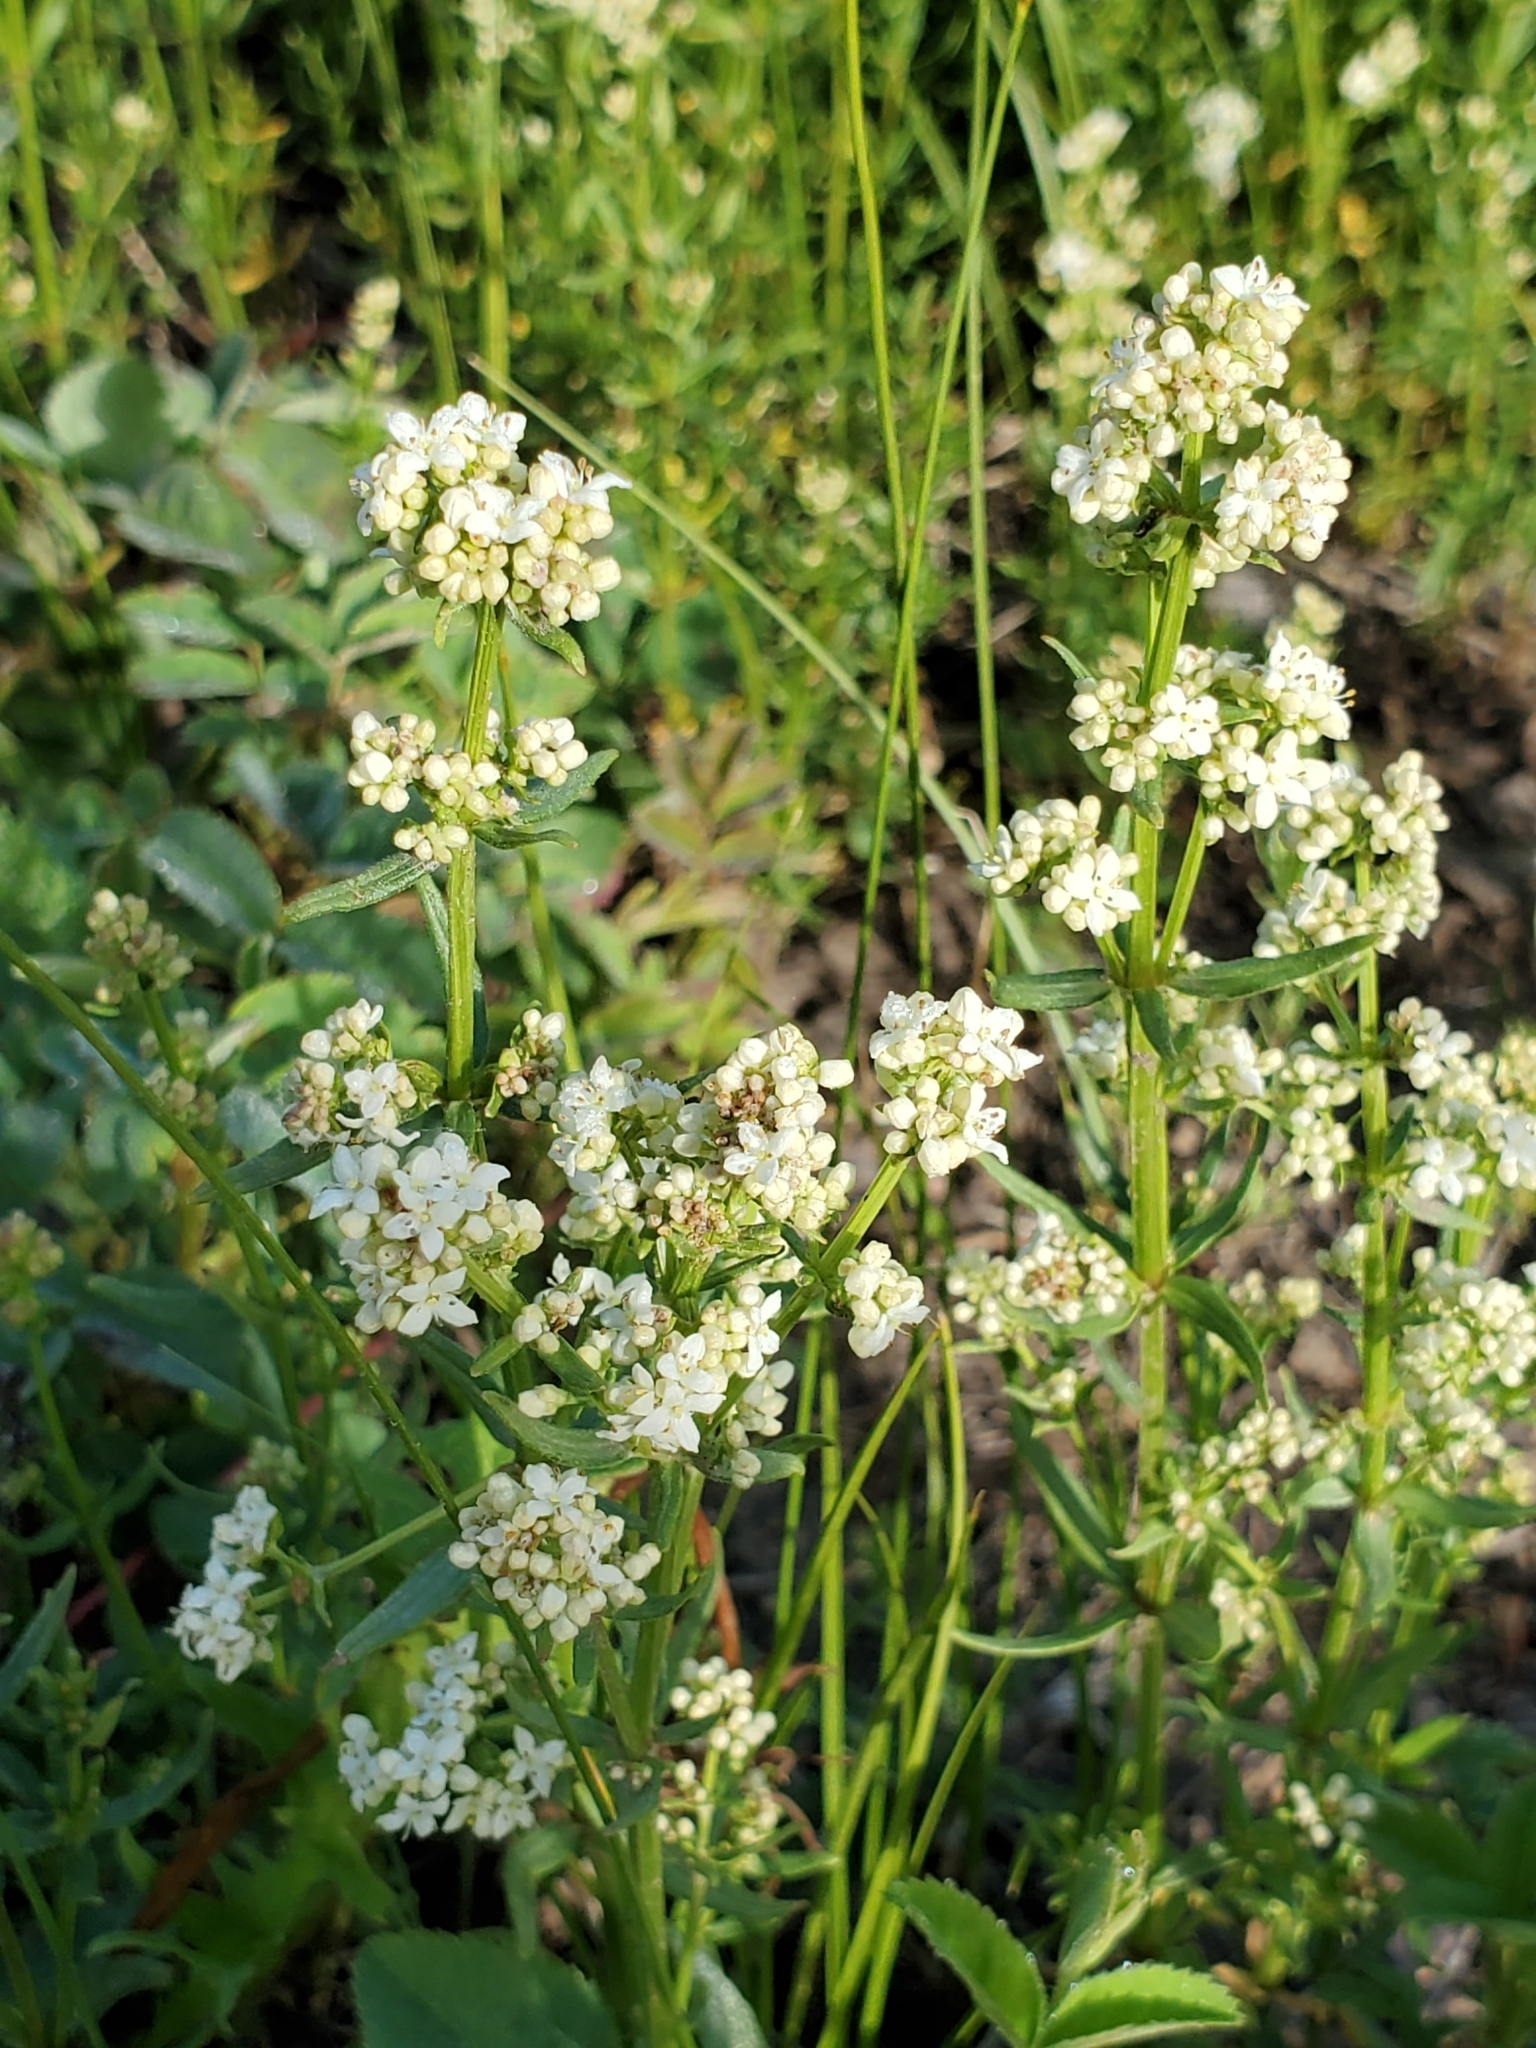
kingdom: Plantae
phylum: Tracheophyta
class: Magnoliopsida
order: Gentianales
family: Rubiaceae
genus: Galium
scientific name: Galium boreale
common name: Northern bedstraw
